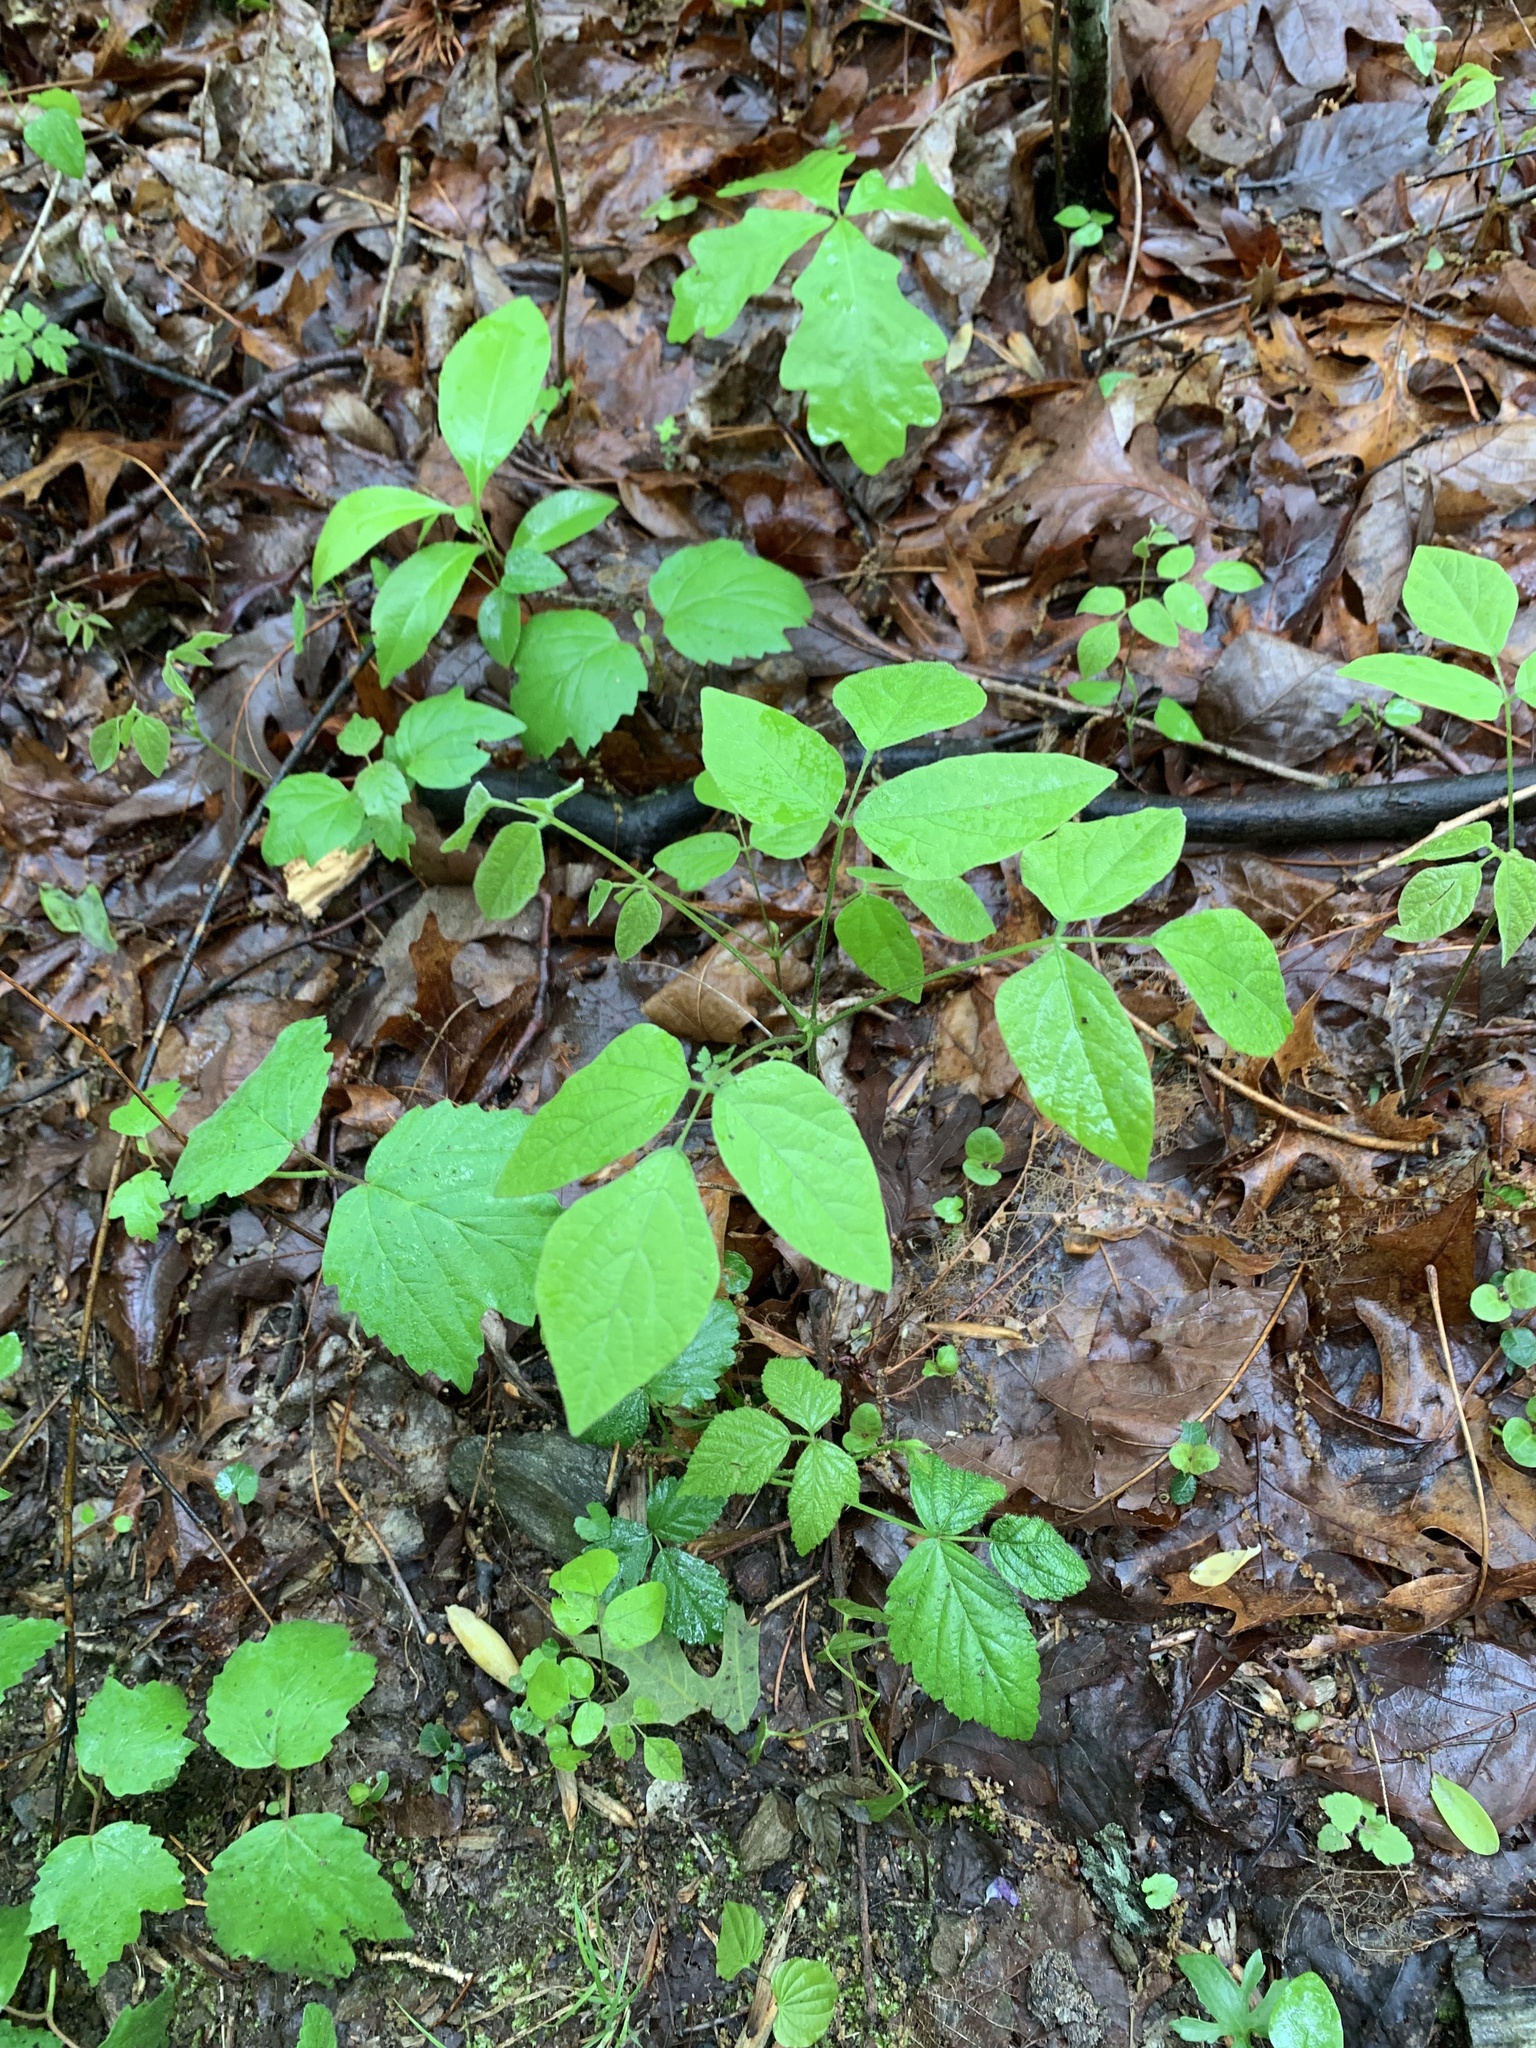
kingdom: Plantae
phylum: Tracheophyta
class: Magnoliopsida
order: Fabales
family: Fabaceae
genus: Amphicarpaea
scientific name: Amphicarpaea bracteata
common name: American hog peanut
